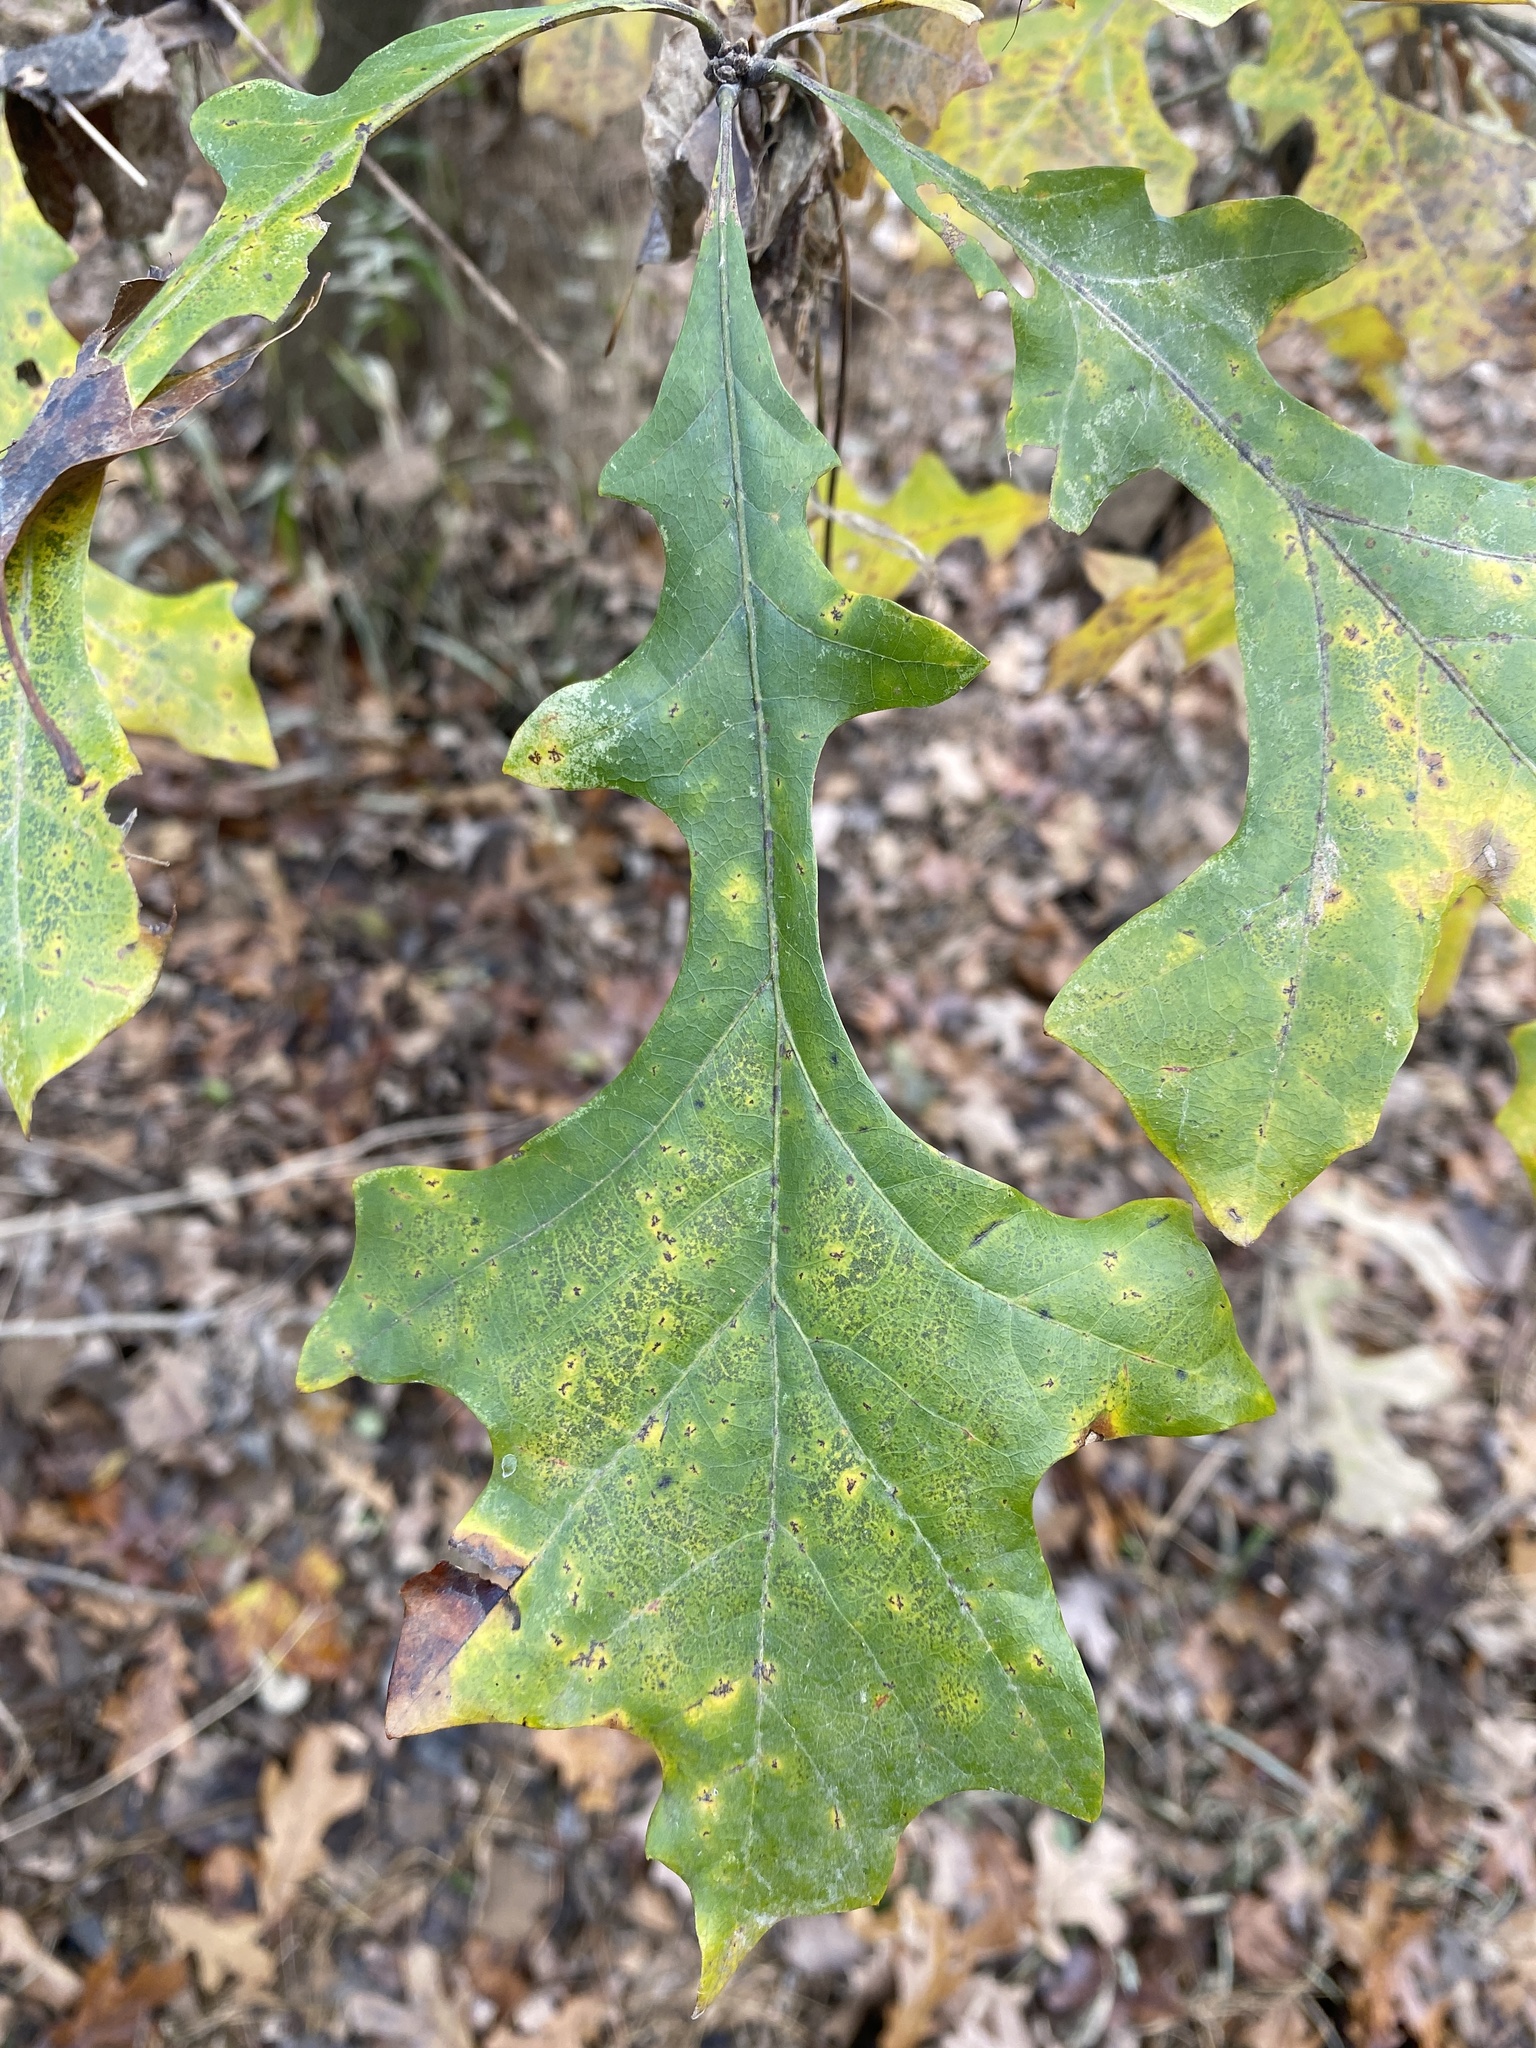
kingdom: Plantae
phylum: Tracheophyta
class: Magnoliopsida
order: Fagales
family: Fagaceae
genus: Quercus
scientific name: Quercus lyrata
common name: Overcup oak
